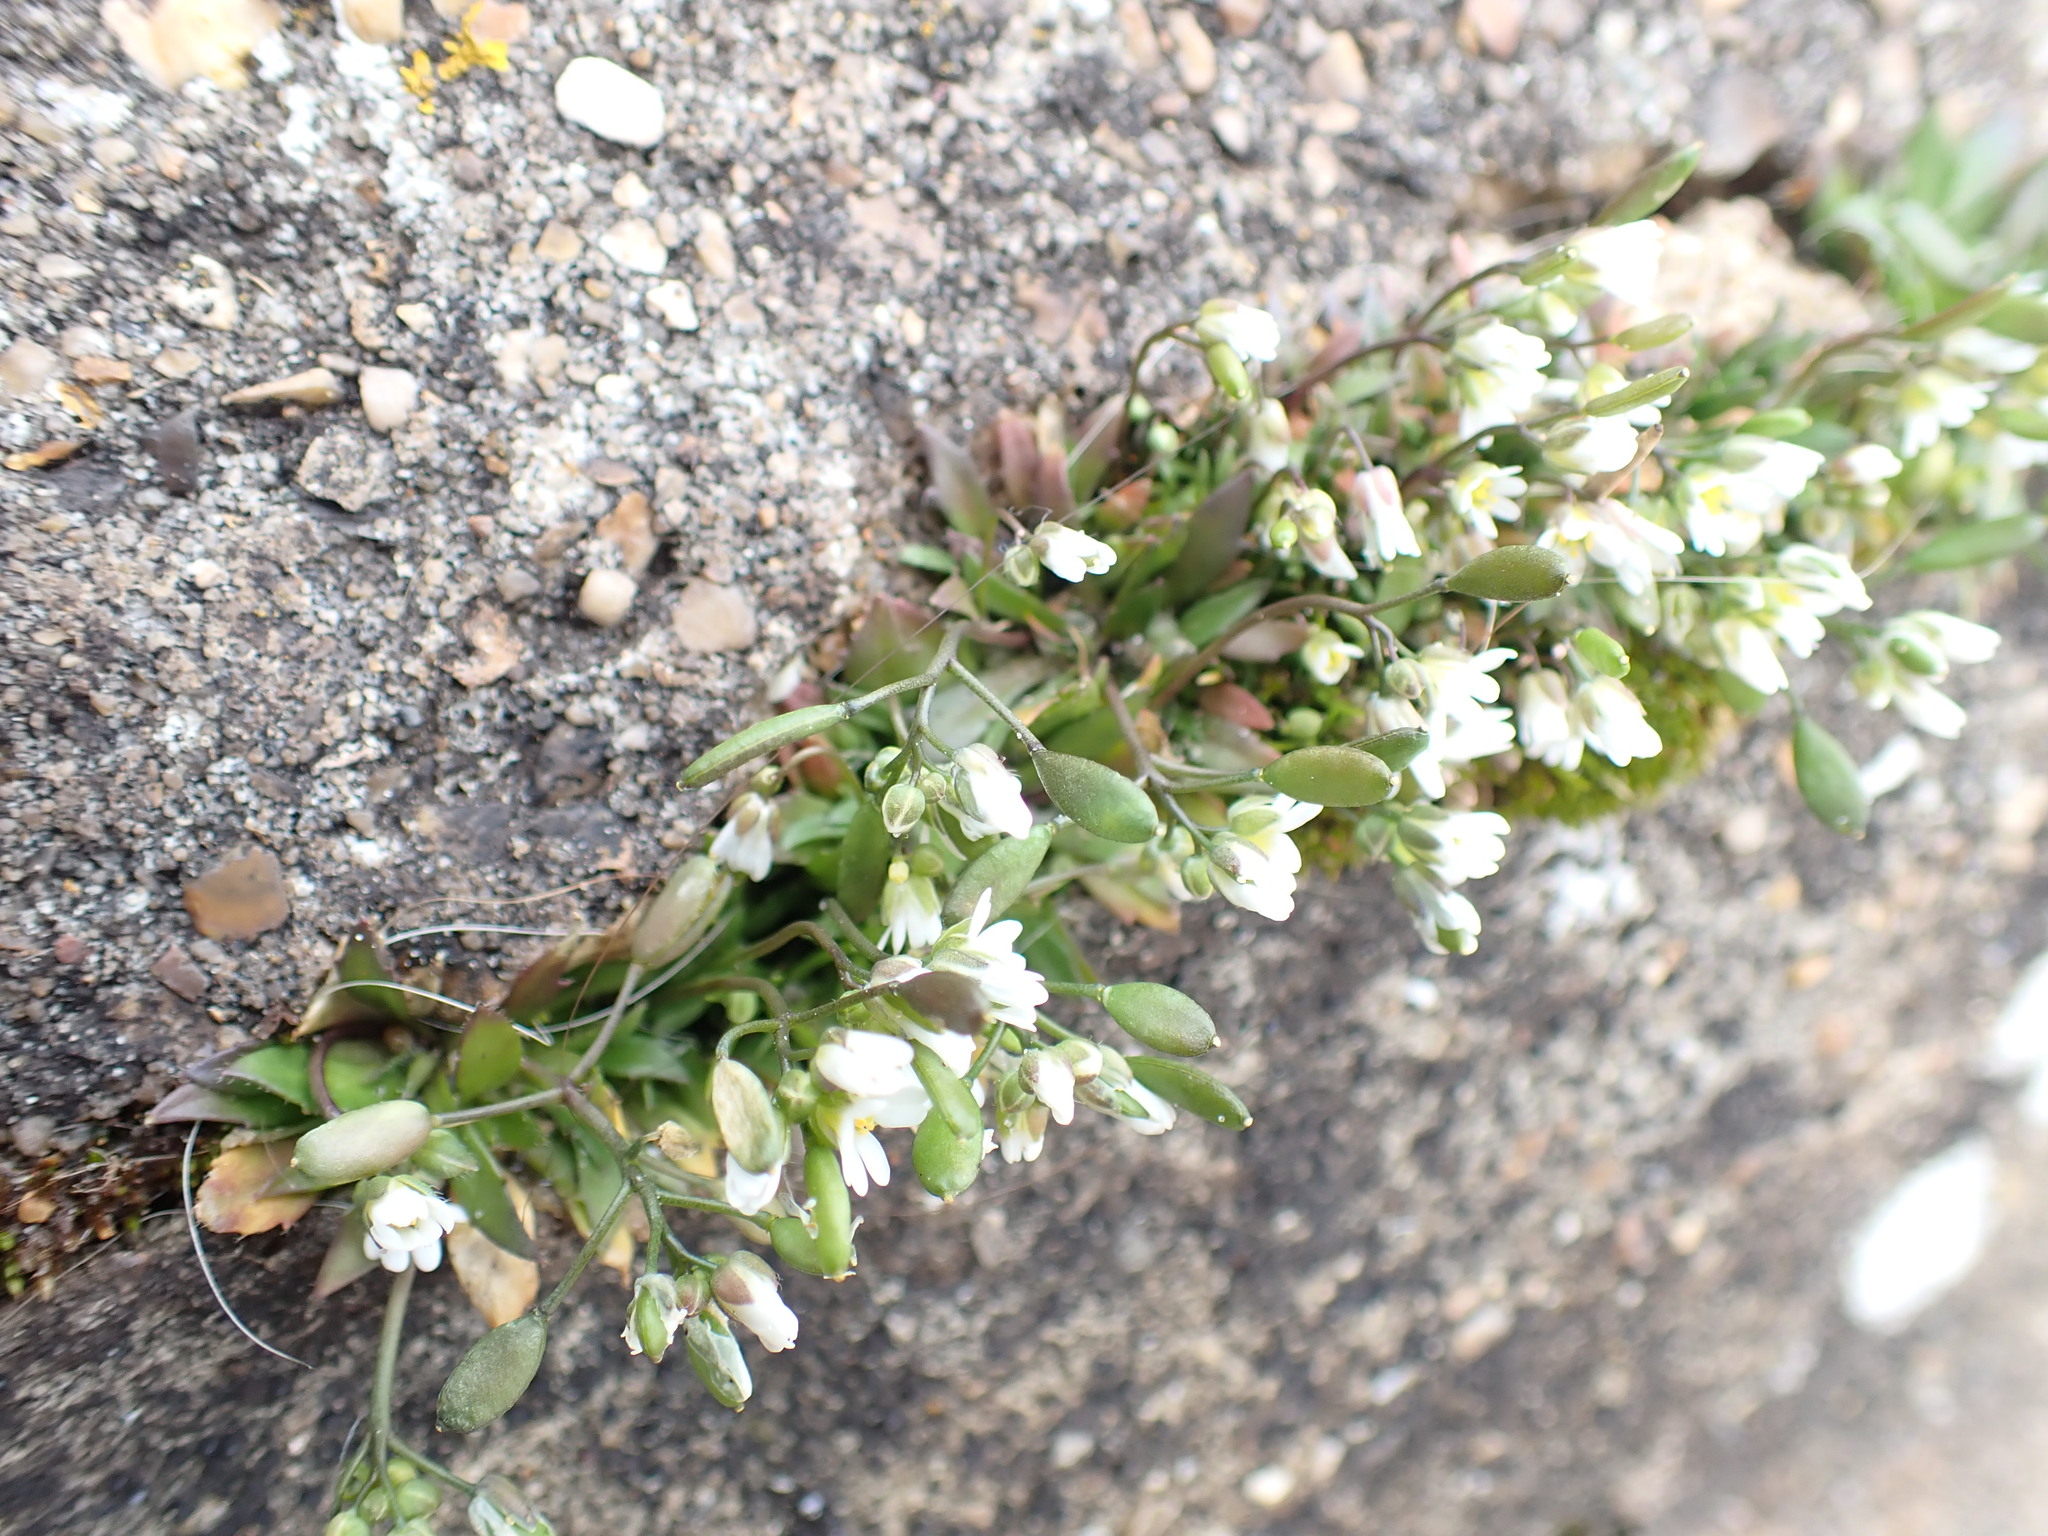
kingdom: Plantae
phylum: Tracheophyta
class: Magnoliopsida
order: Brassicales
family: Brassicaceae
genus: Draba
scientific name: Draba verna
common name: Spring draba
